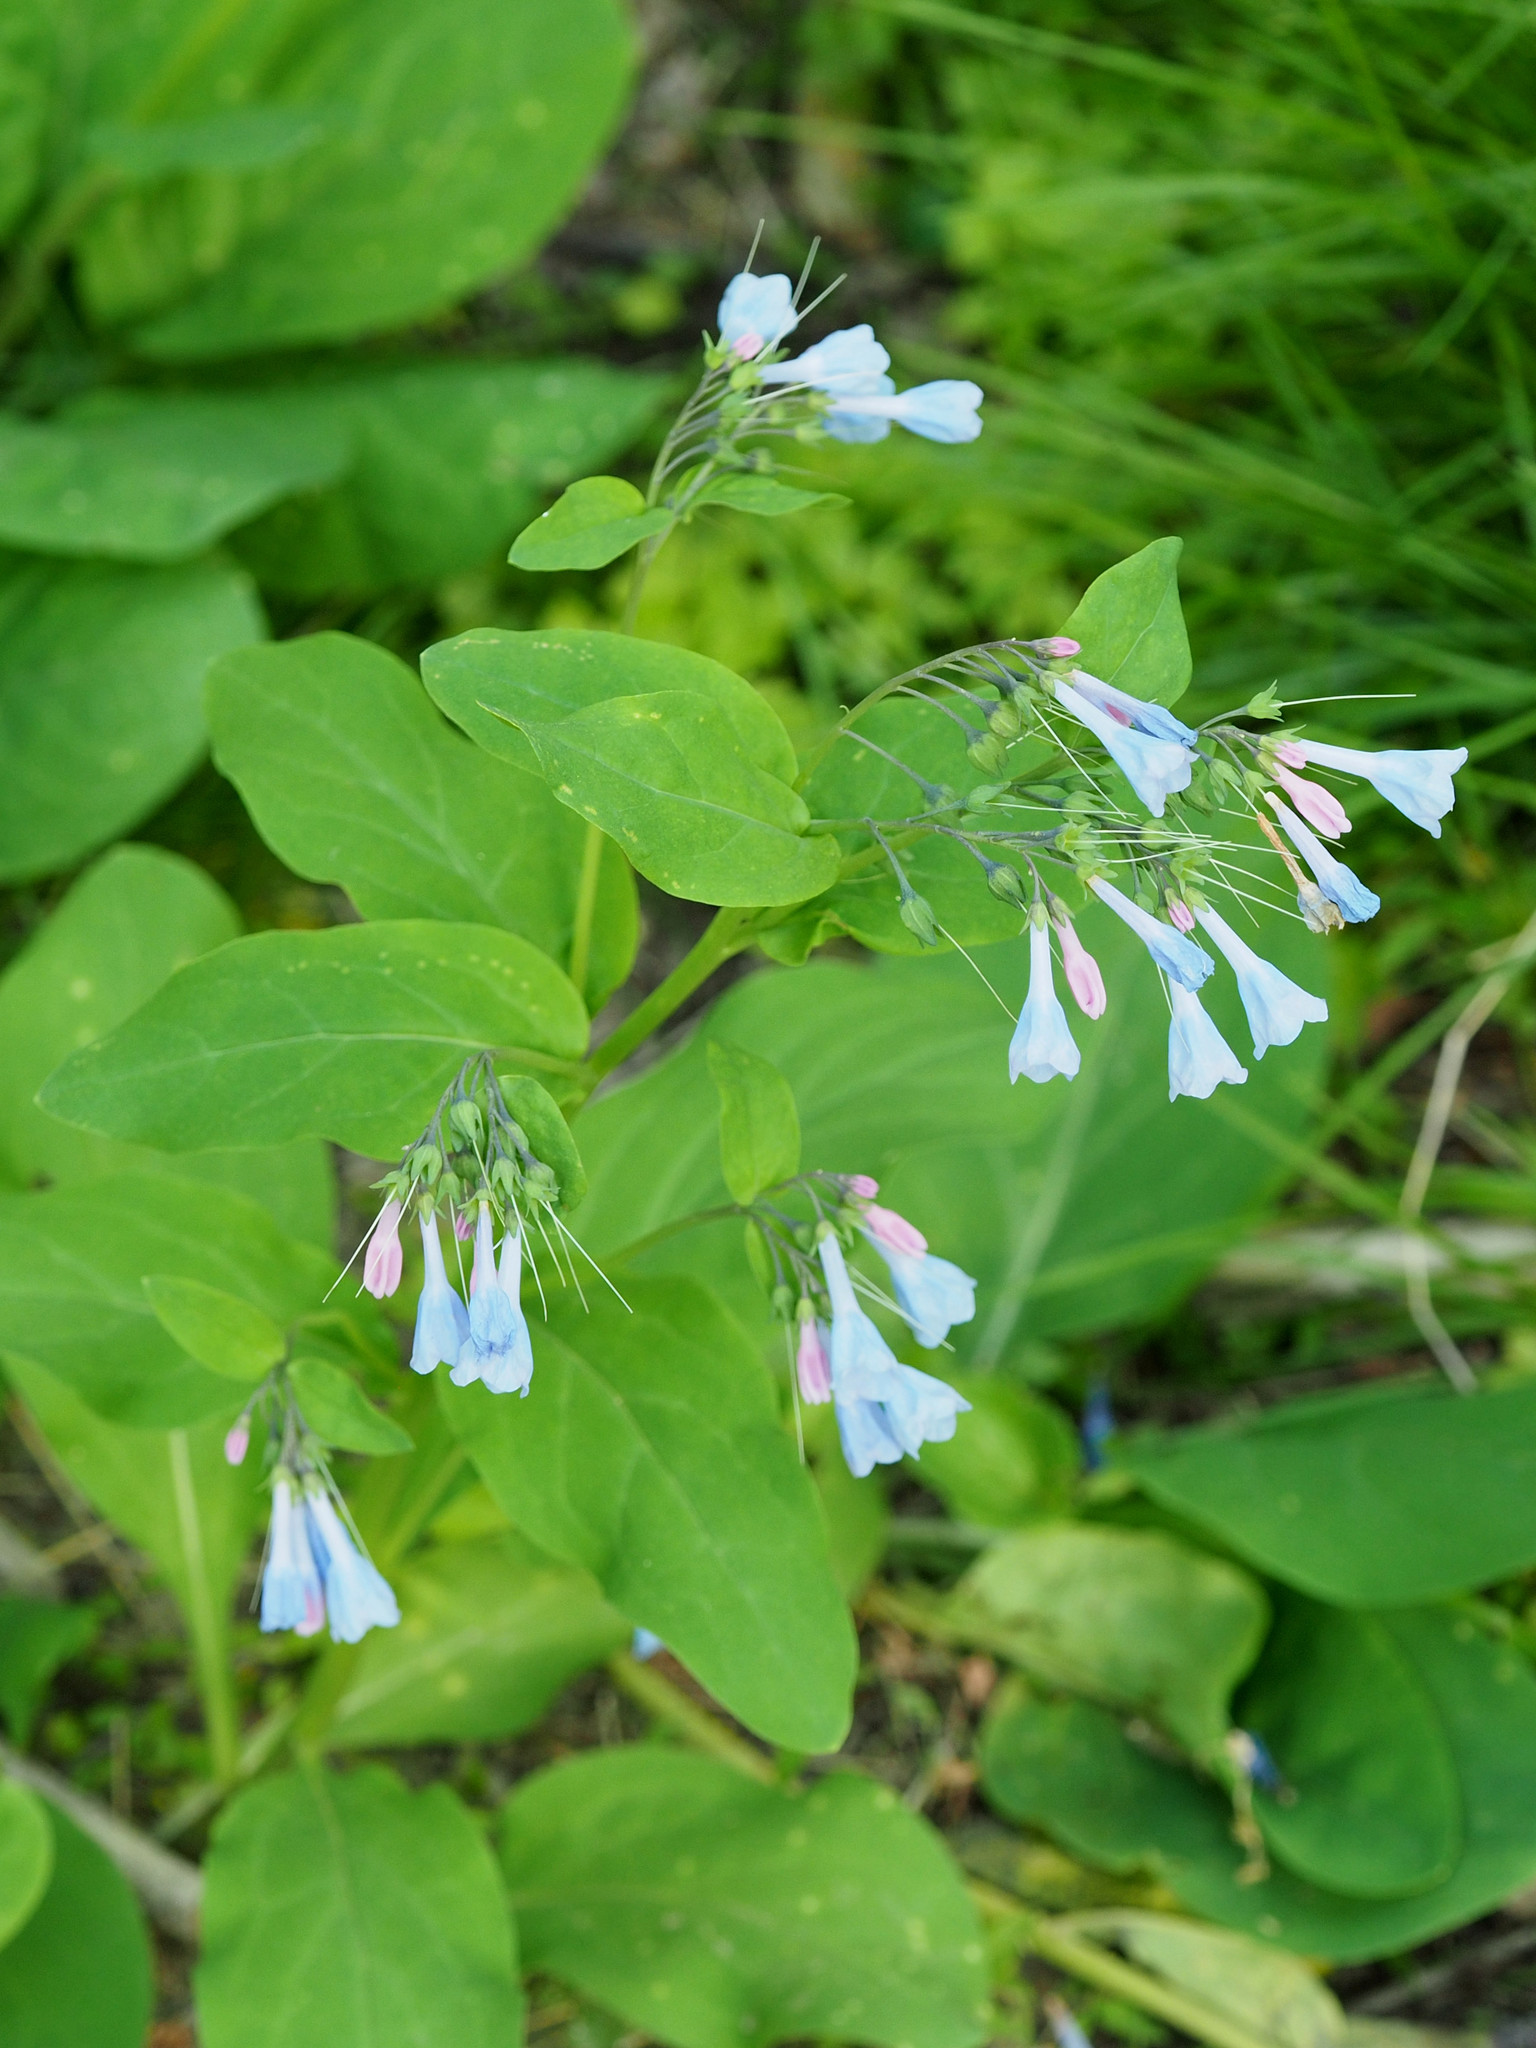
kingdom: Plantae
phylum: Tracheophyta
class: Magnoliopsida
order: Boraginales
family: Boraginaceae
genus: Mertensia
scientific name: Mertensia virginica
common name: Virginia bluebells
